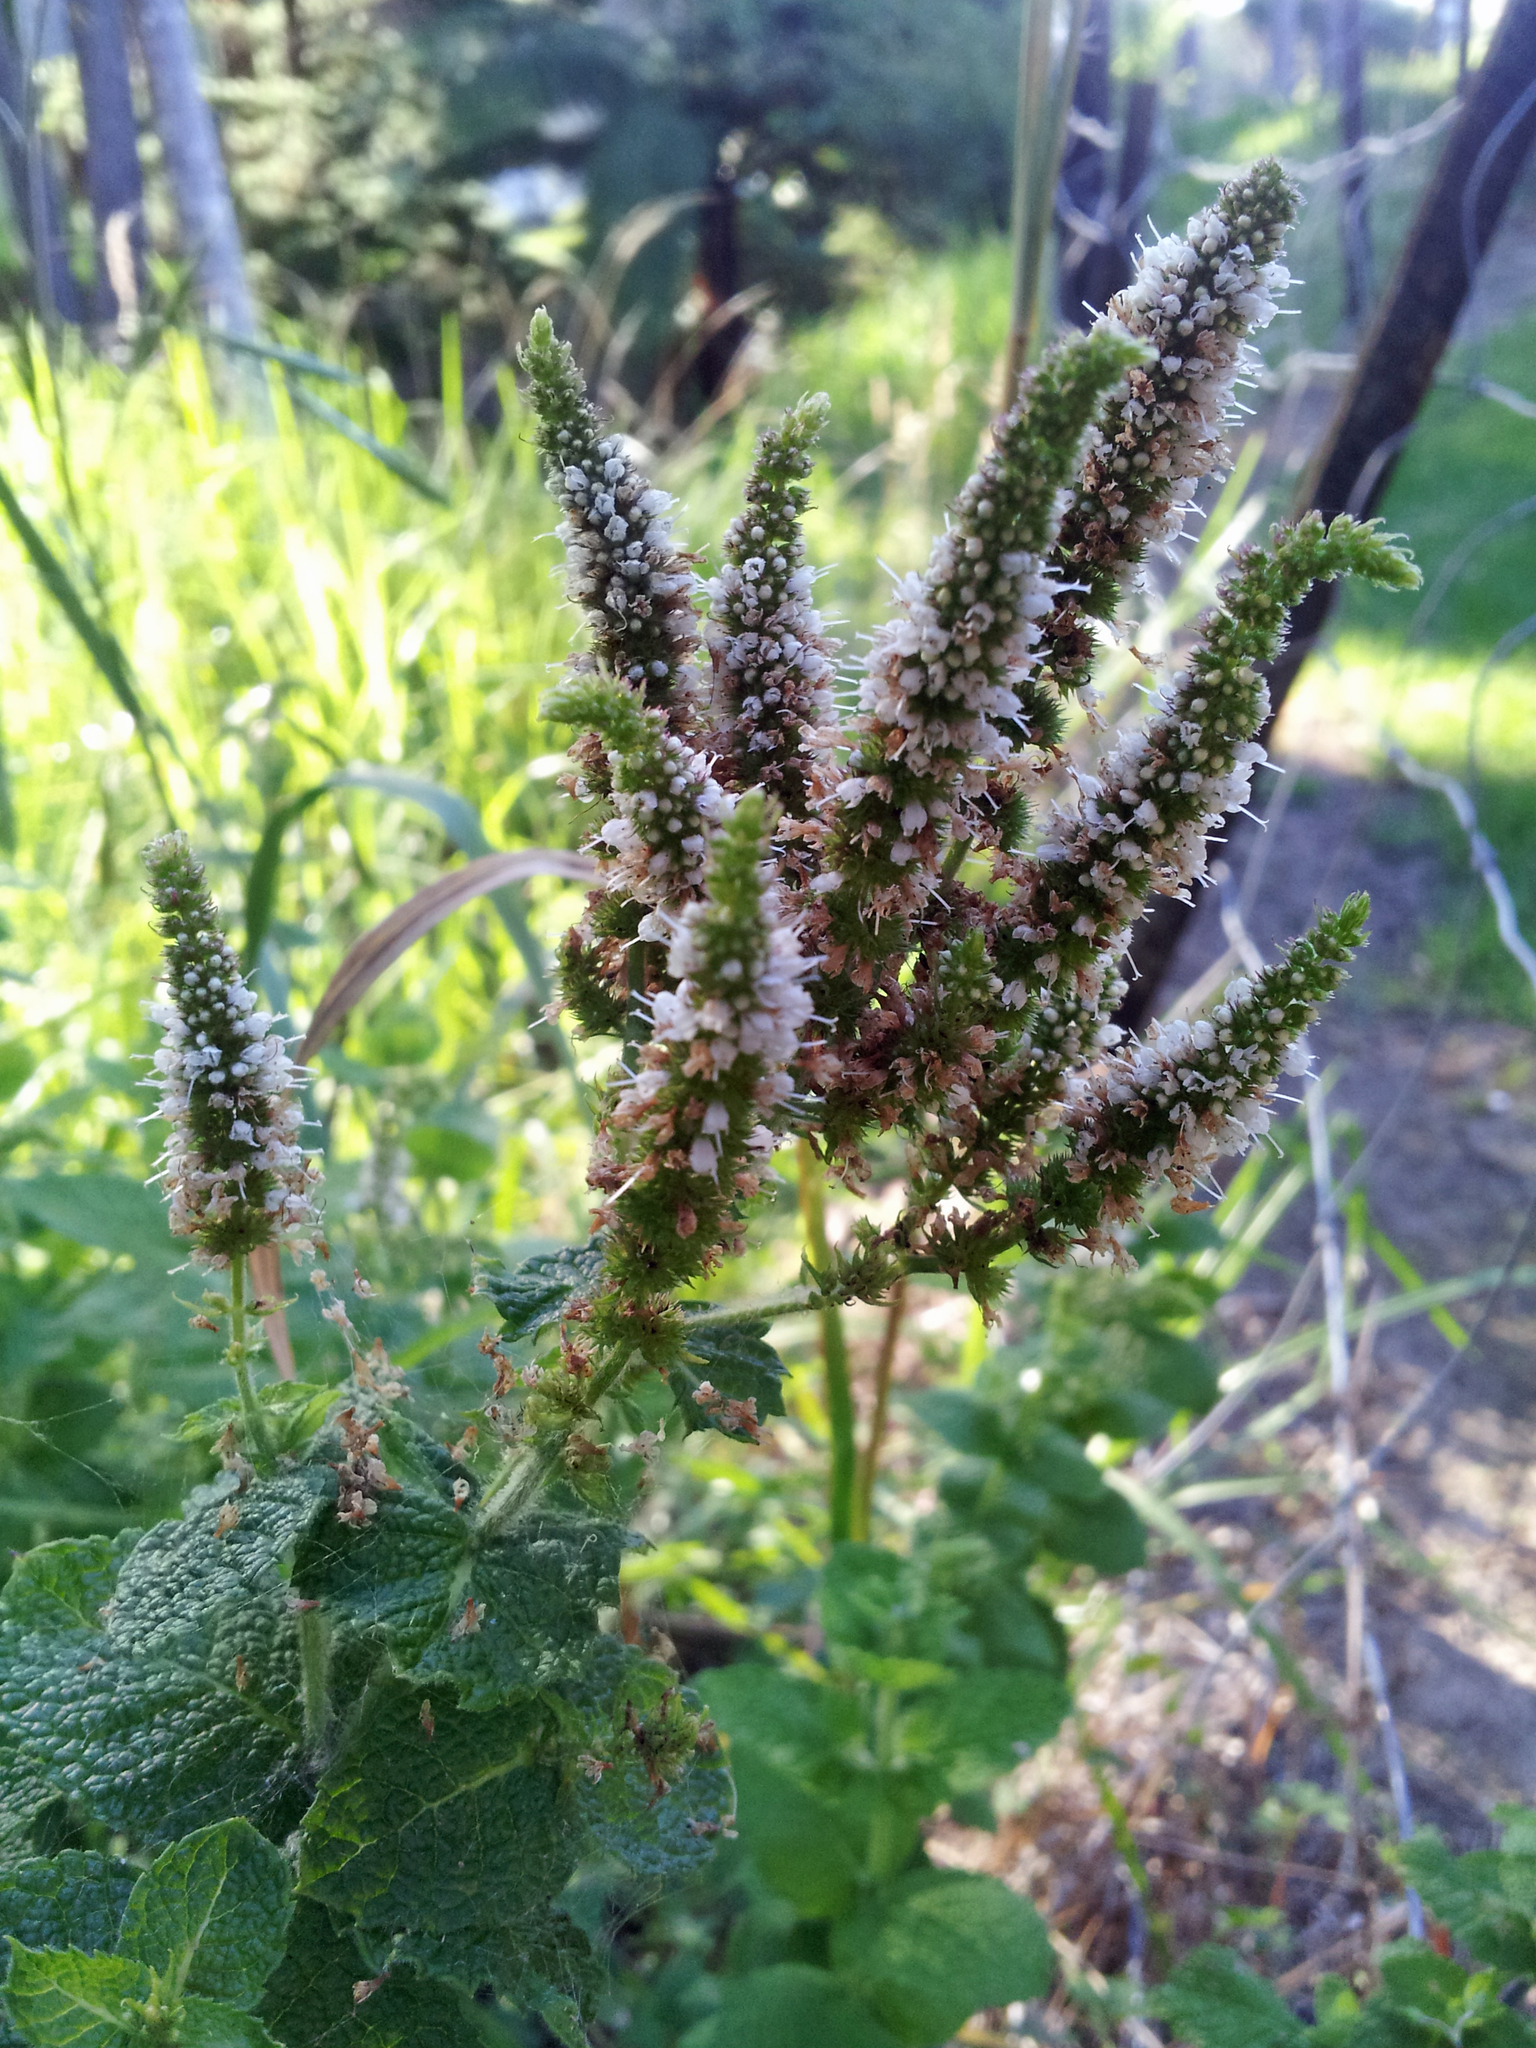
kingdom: Plantae
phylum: Tracheophyta
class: Magnoliopsida
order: Lamiales
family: Lamiaceae
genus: Mentha
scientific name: Mentha
